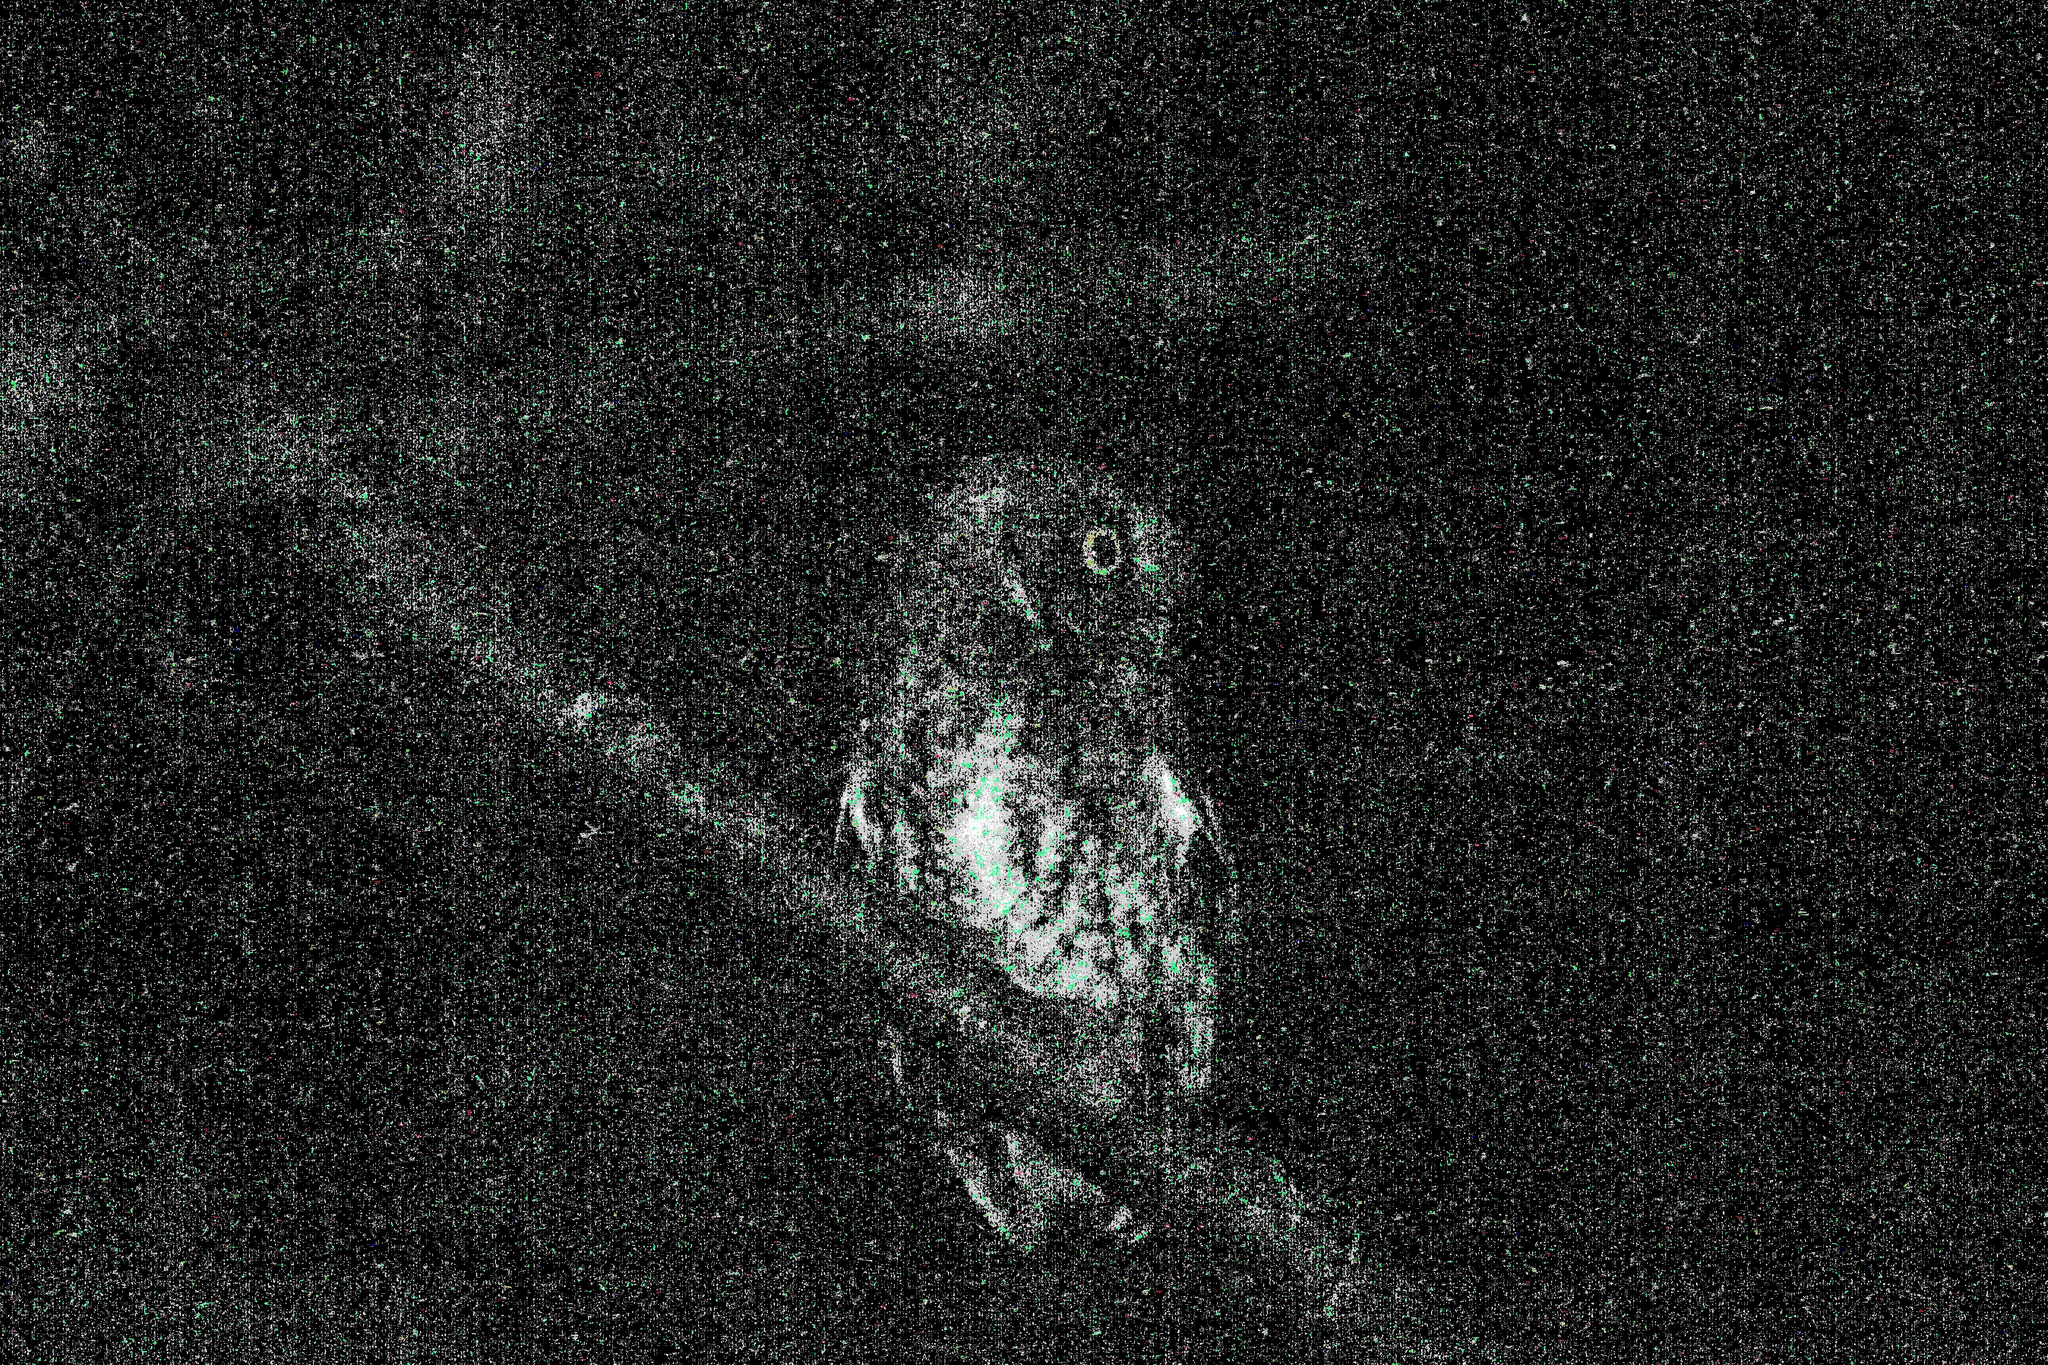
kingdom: Animalia
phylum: Chordata
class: Aves
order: Strigiformes
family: Strigidae
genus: Megascops
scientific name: Megascops barbarus
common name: Bearded screech-owl
